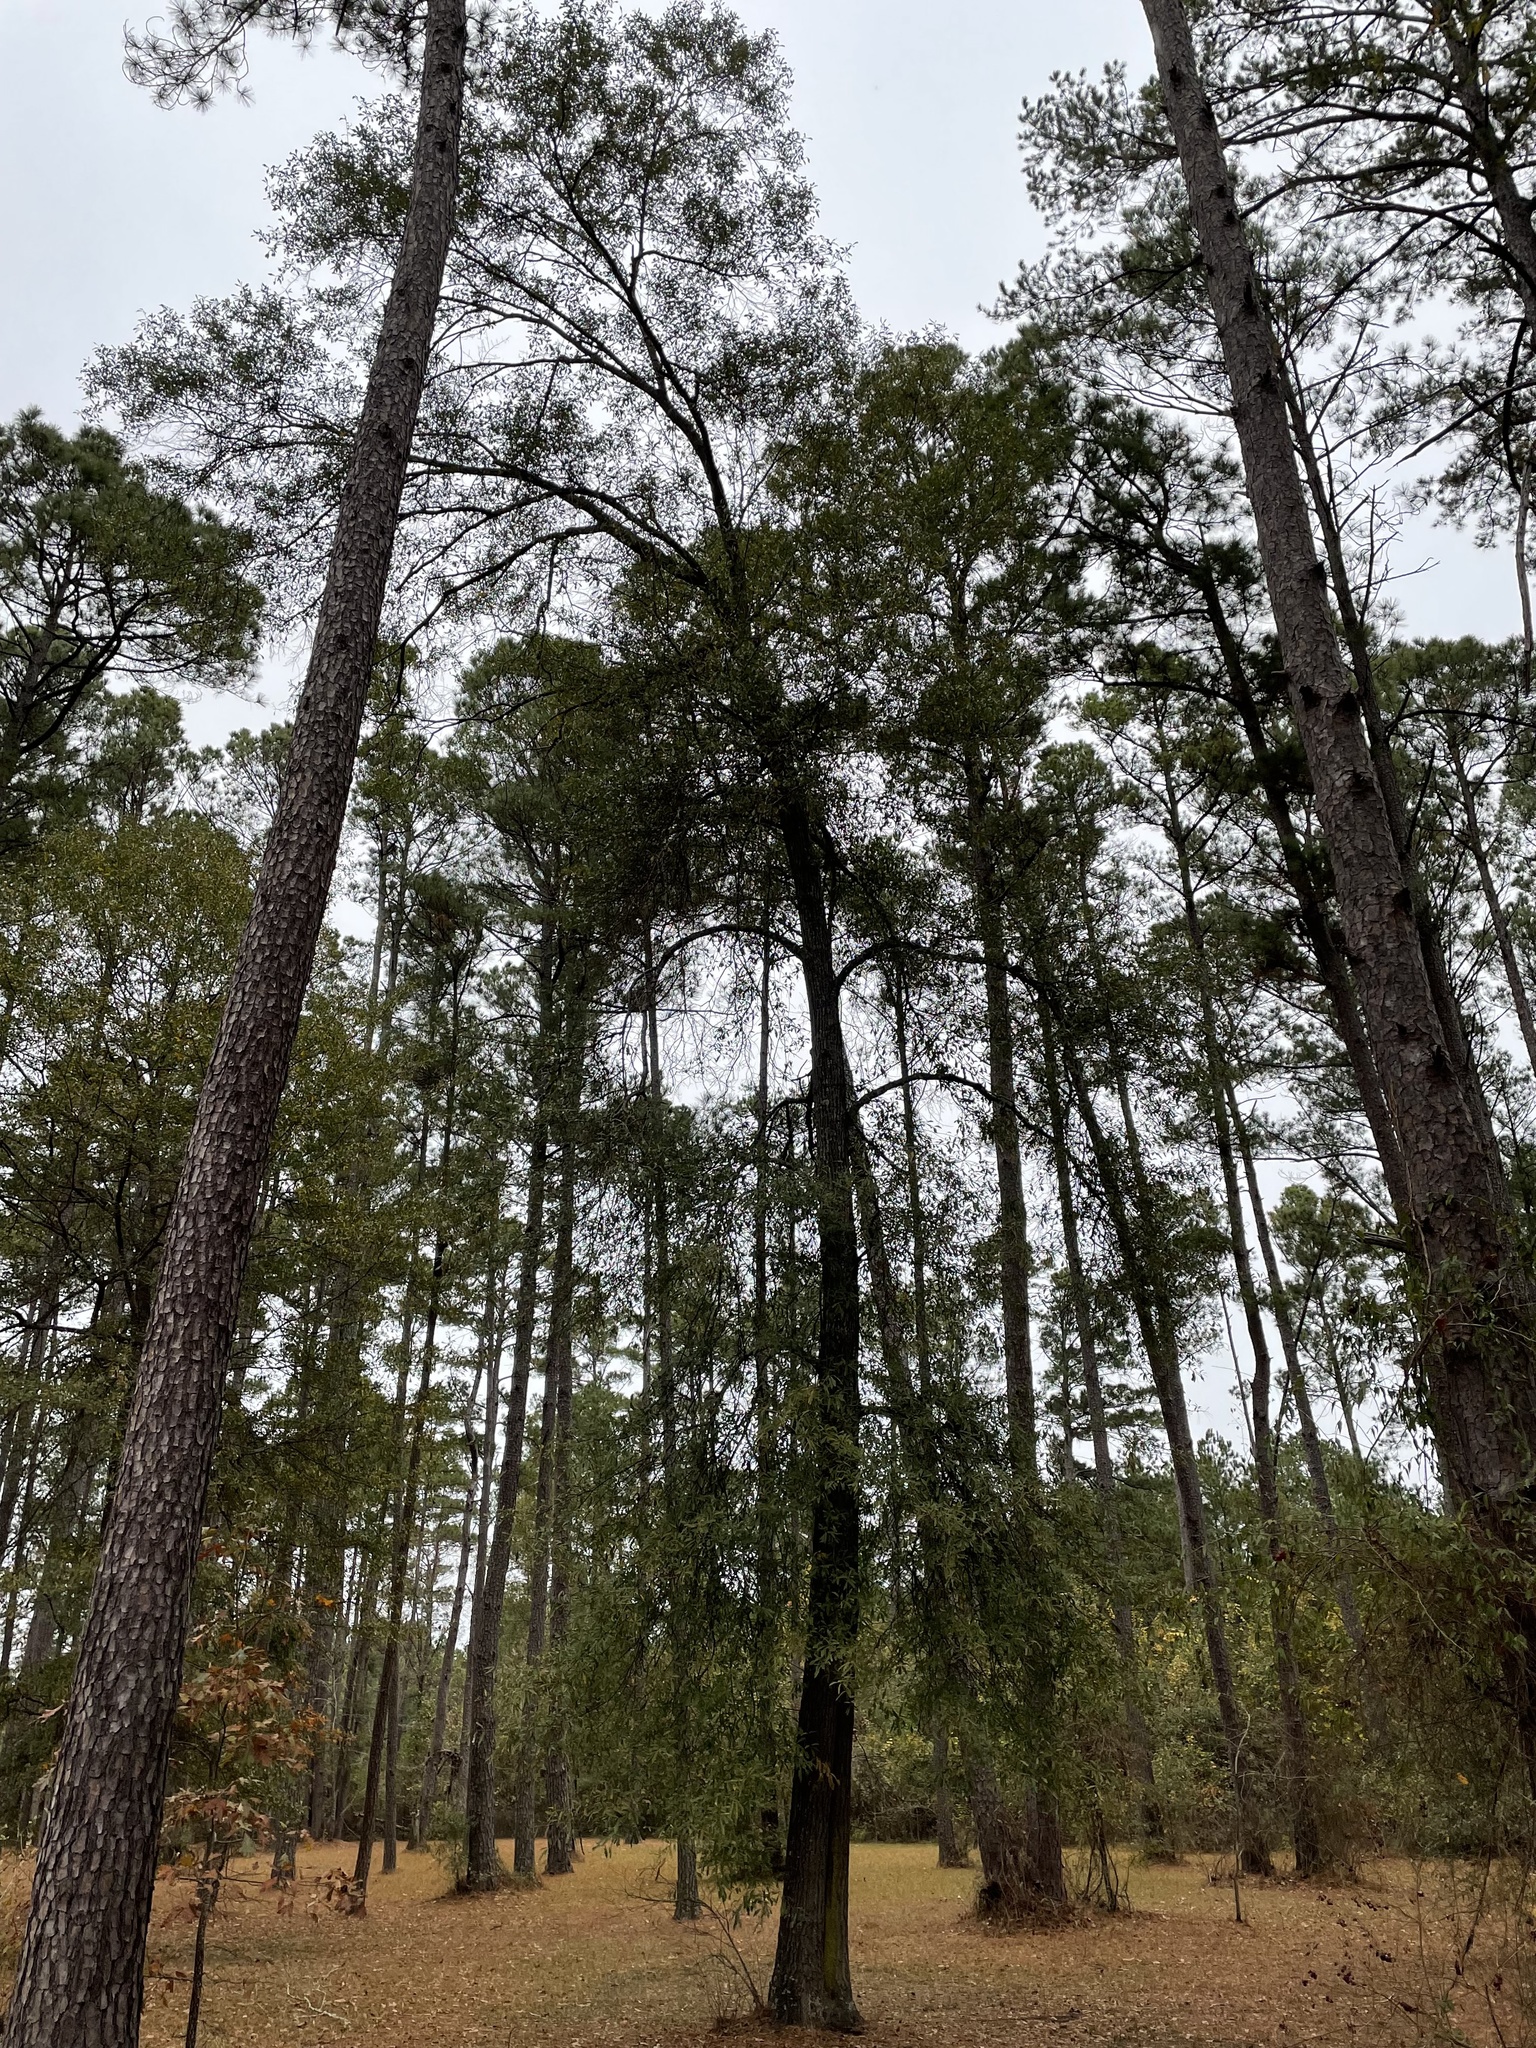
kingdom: Plantae
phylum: Tracheophyta
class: Magnoliopsida
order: Fagales
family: Fagaceae
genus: Quercus
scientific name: Quercus phellos
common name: Willow oak
